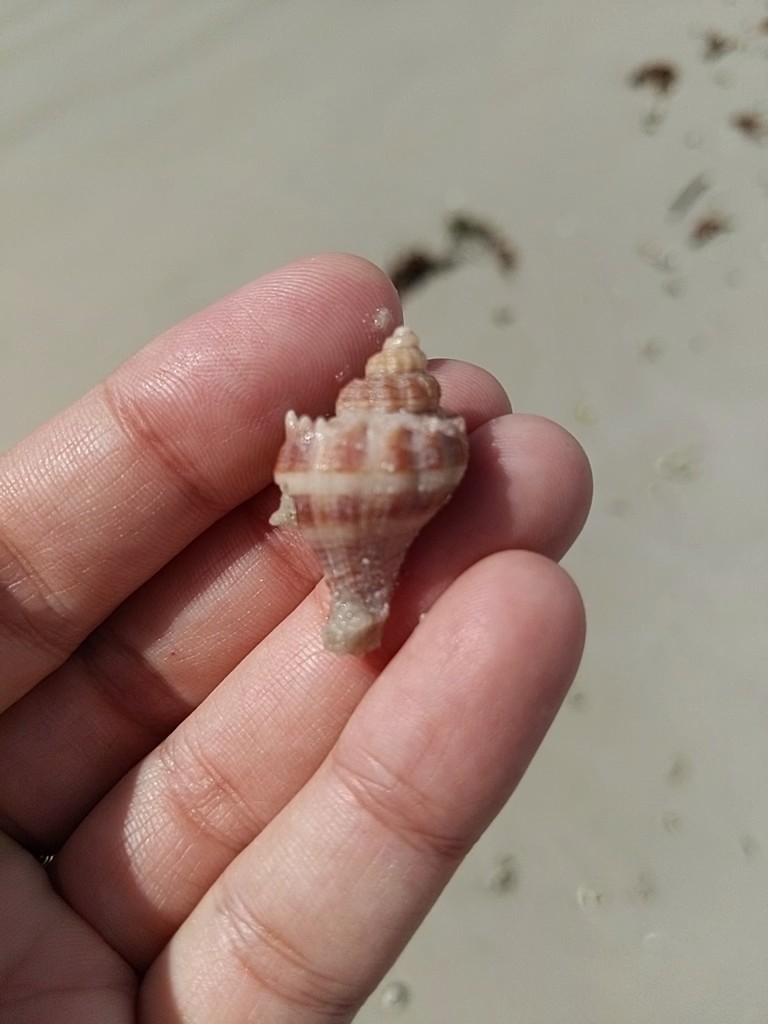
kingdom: Animalia
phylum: Mollusca
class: Gastropoda
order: Neogastropoda
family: Melongenidae
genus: Melongena
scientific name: Melongena corona
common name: American crown conch
